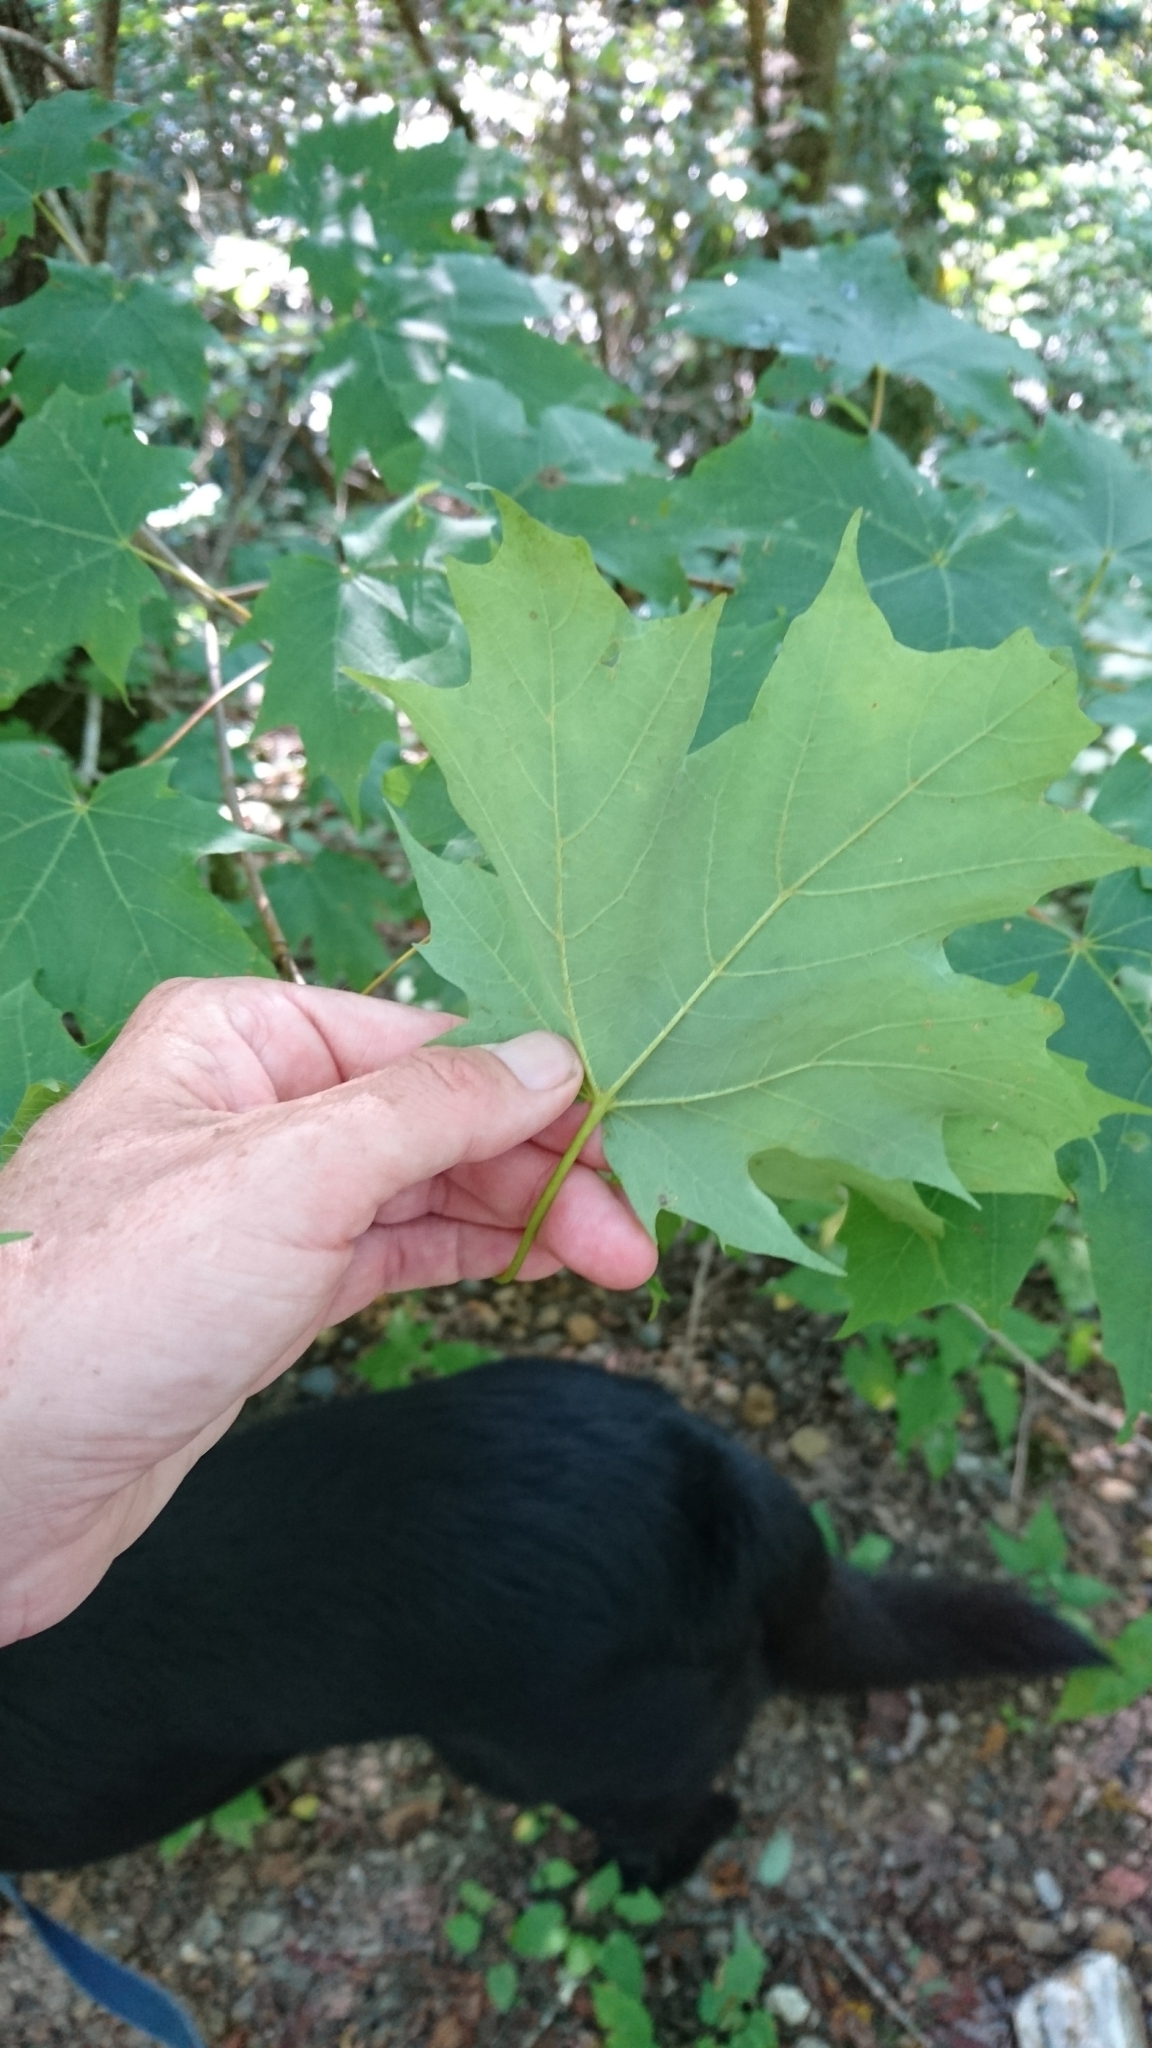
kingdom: Plantae
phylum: Tracheophyta
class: Magnoliopsida
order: Sapindales
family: Sapindaceae
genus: Acer
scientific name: Acer saccharum
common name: Sugar maple
